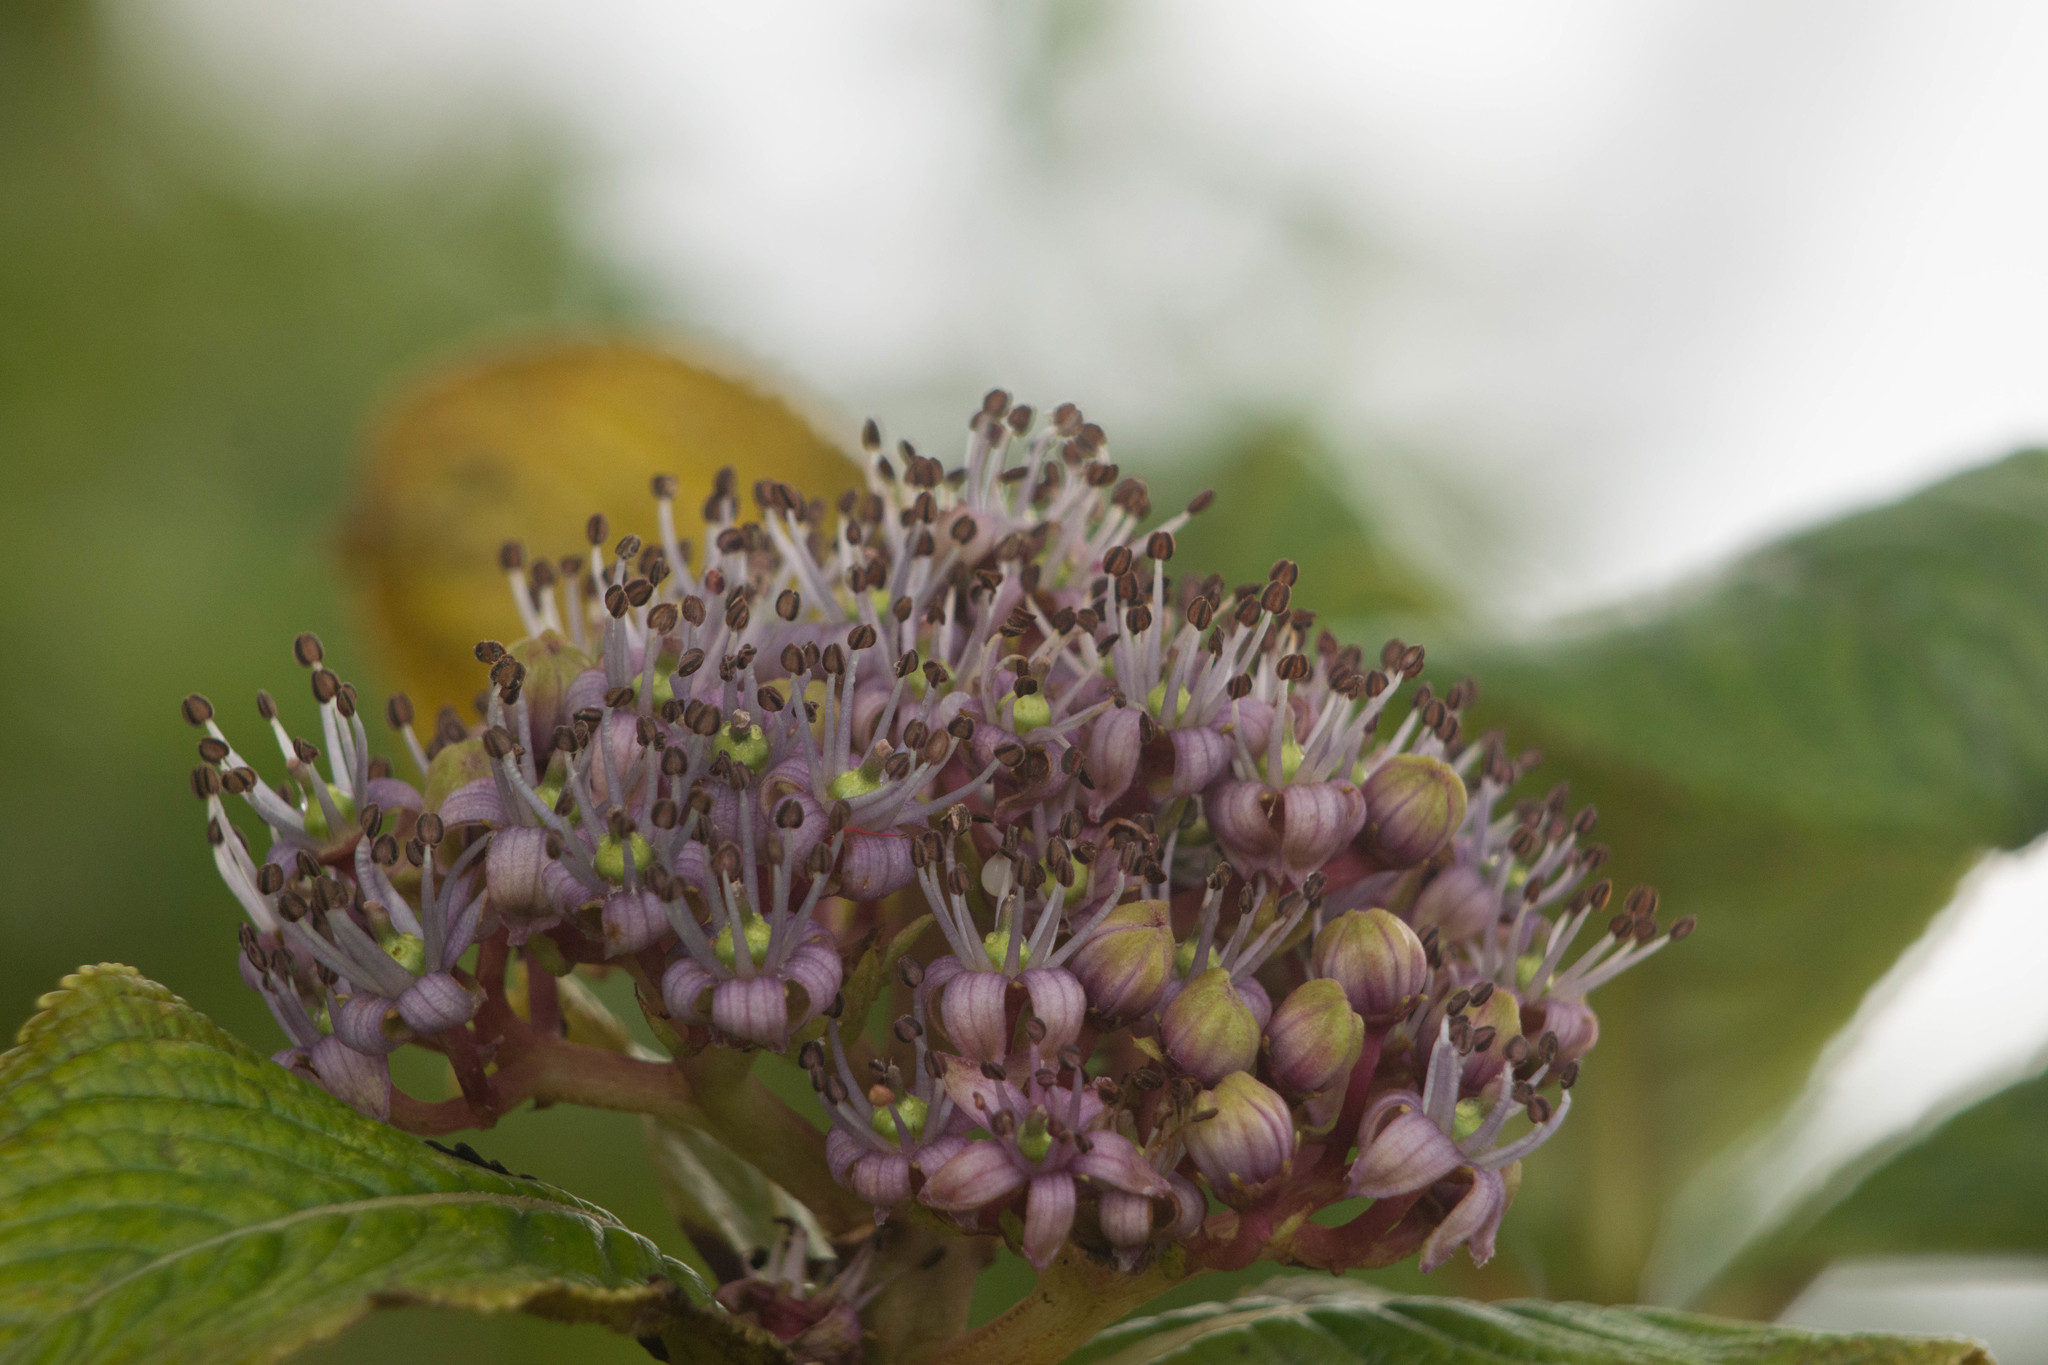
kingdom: Plantae
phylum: Tracheophyta
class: Magnoliopsida
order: Cornales
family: Hydrangeaceae
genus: Hydrangea
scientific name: Hydrangea arguta
